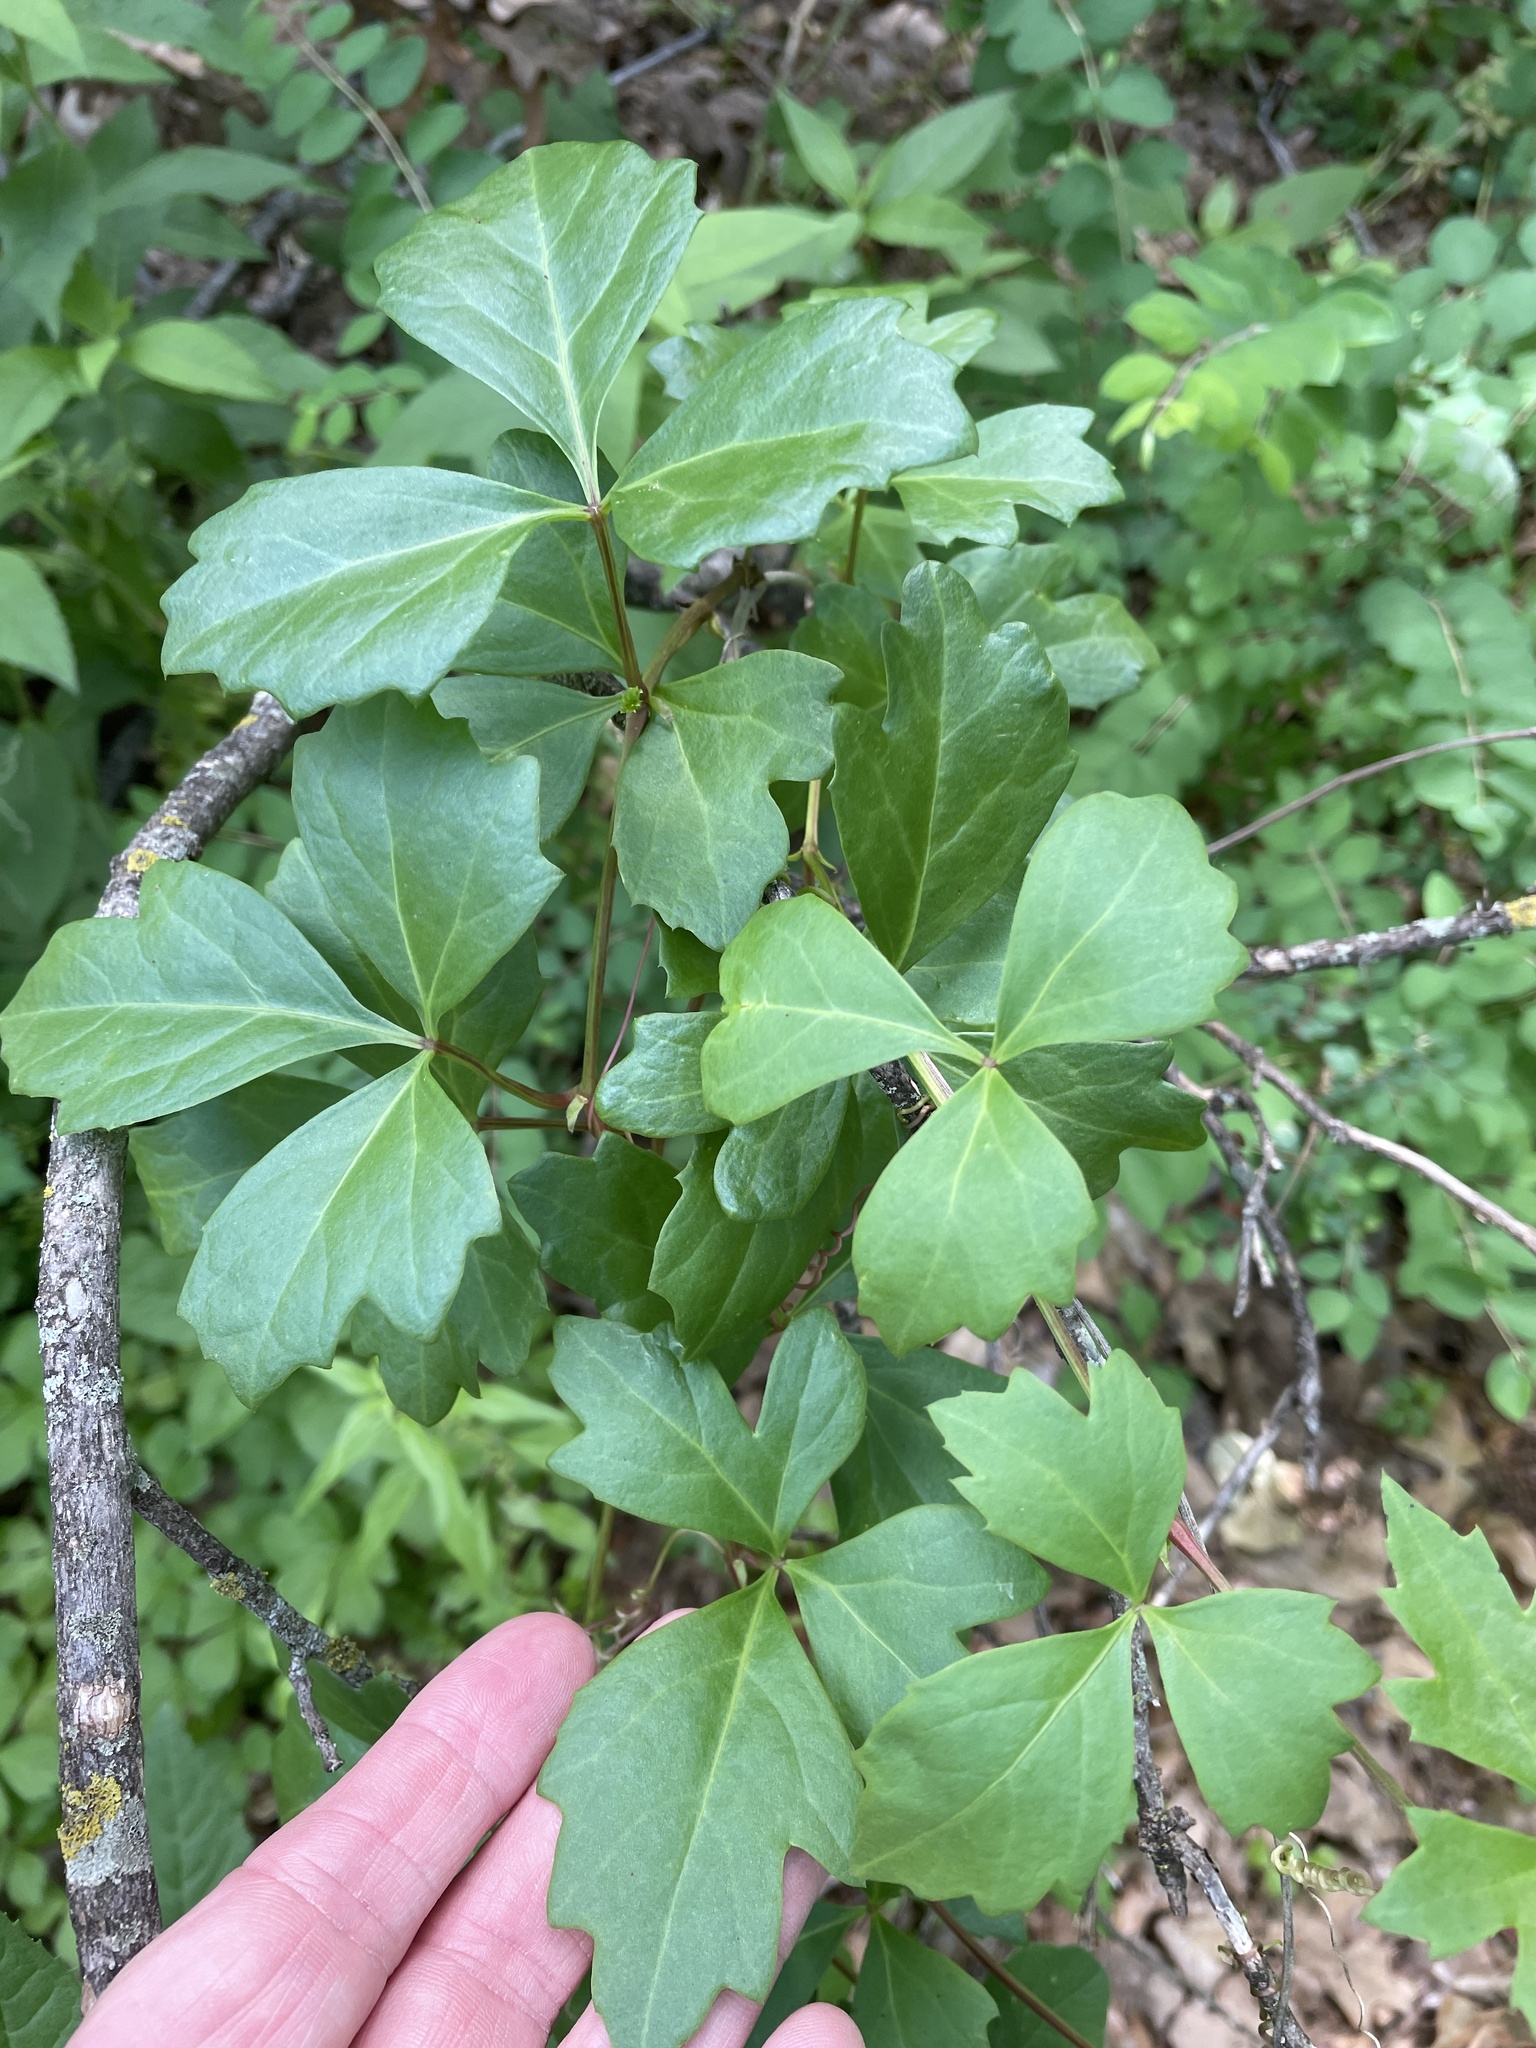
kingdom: Plantae
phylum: Tracheophyta
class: Magnoliopsida
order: Vitales
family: Vitaceae
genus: Cissus
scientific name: Cissus trifoliata
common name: Vine-sorrel
